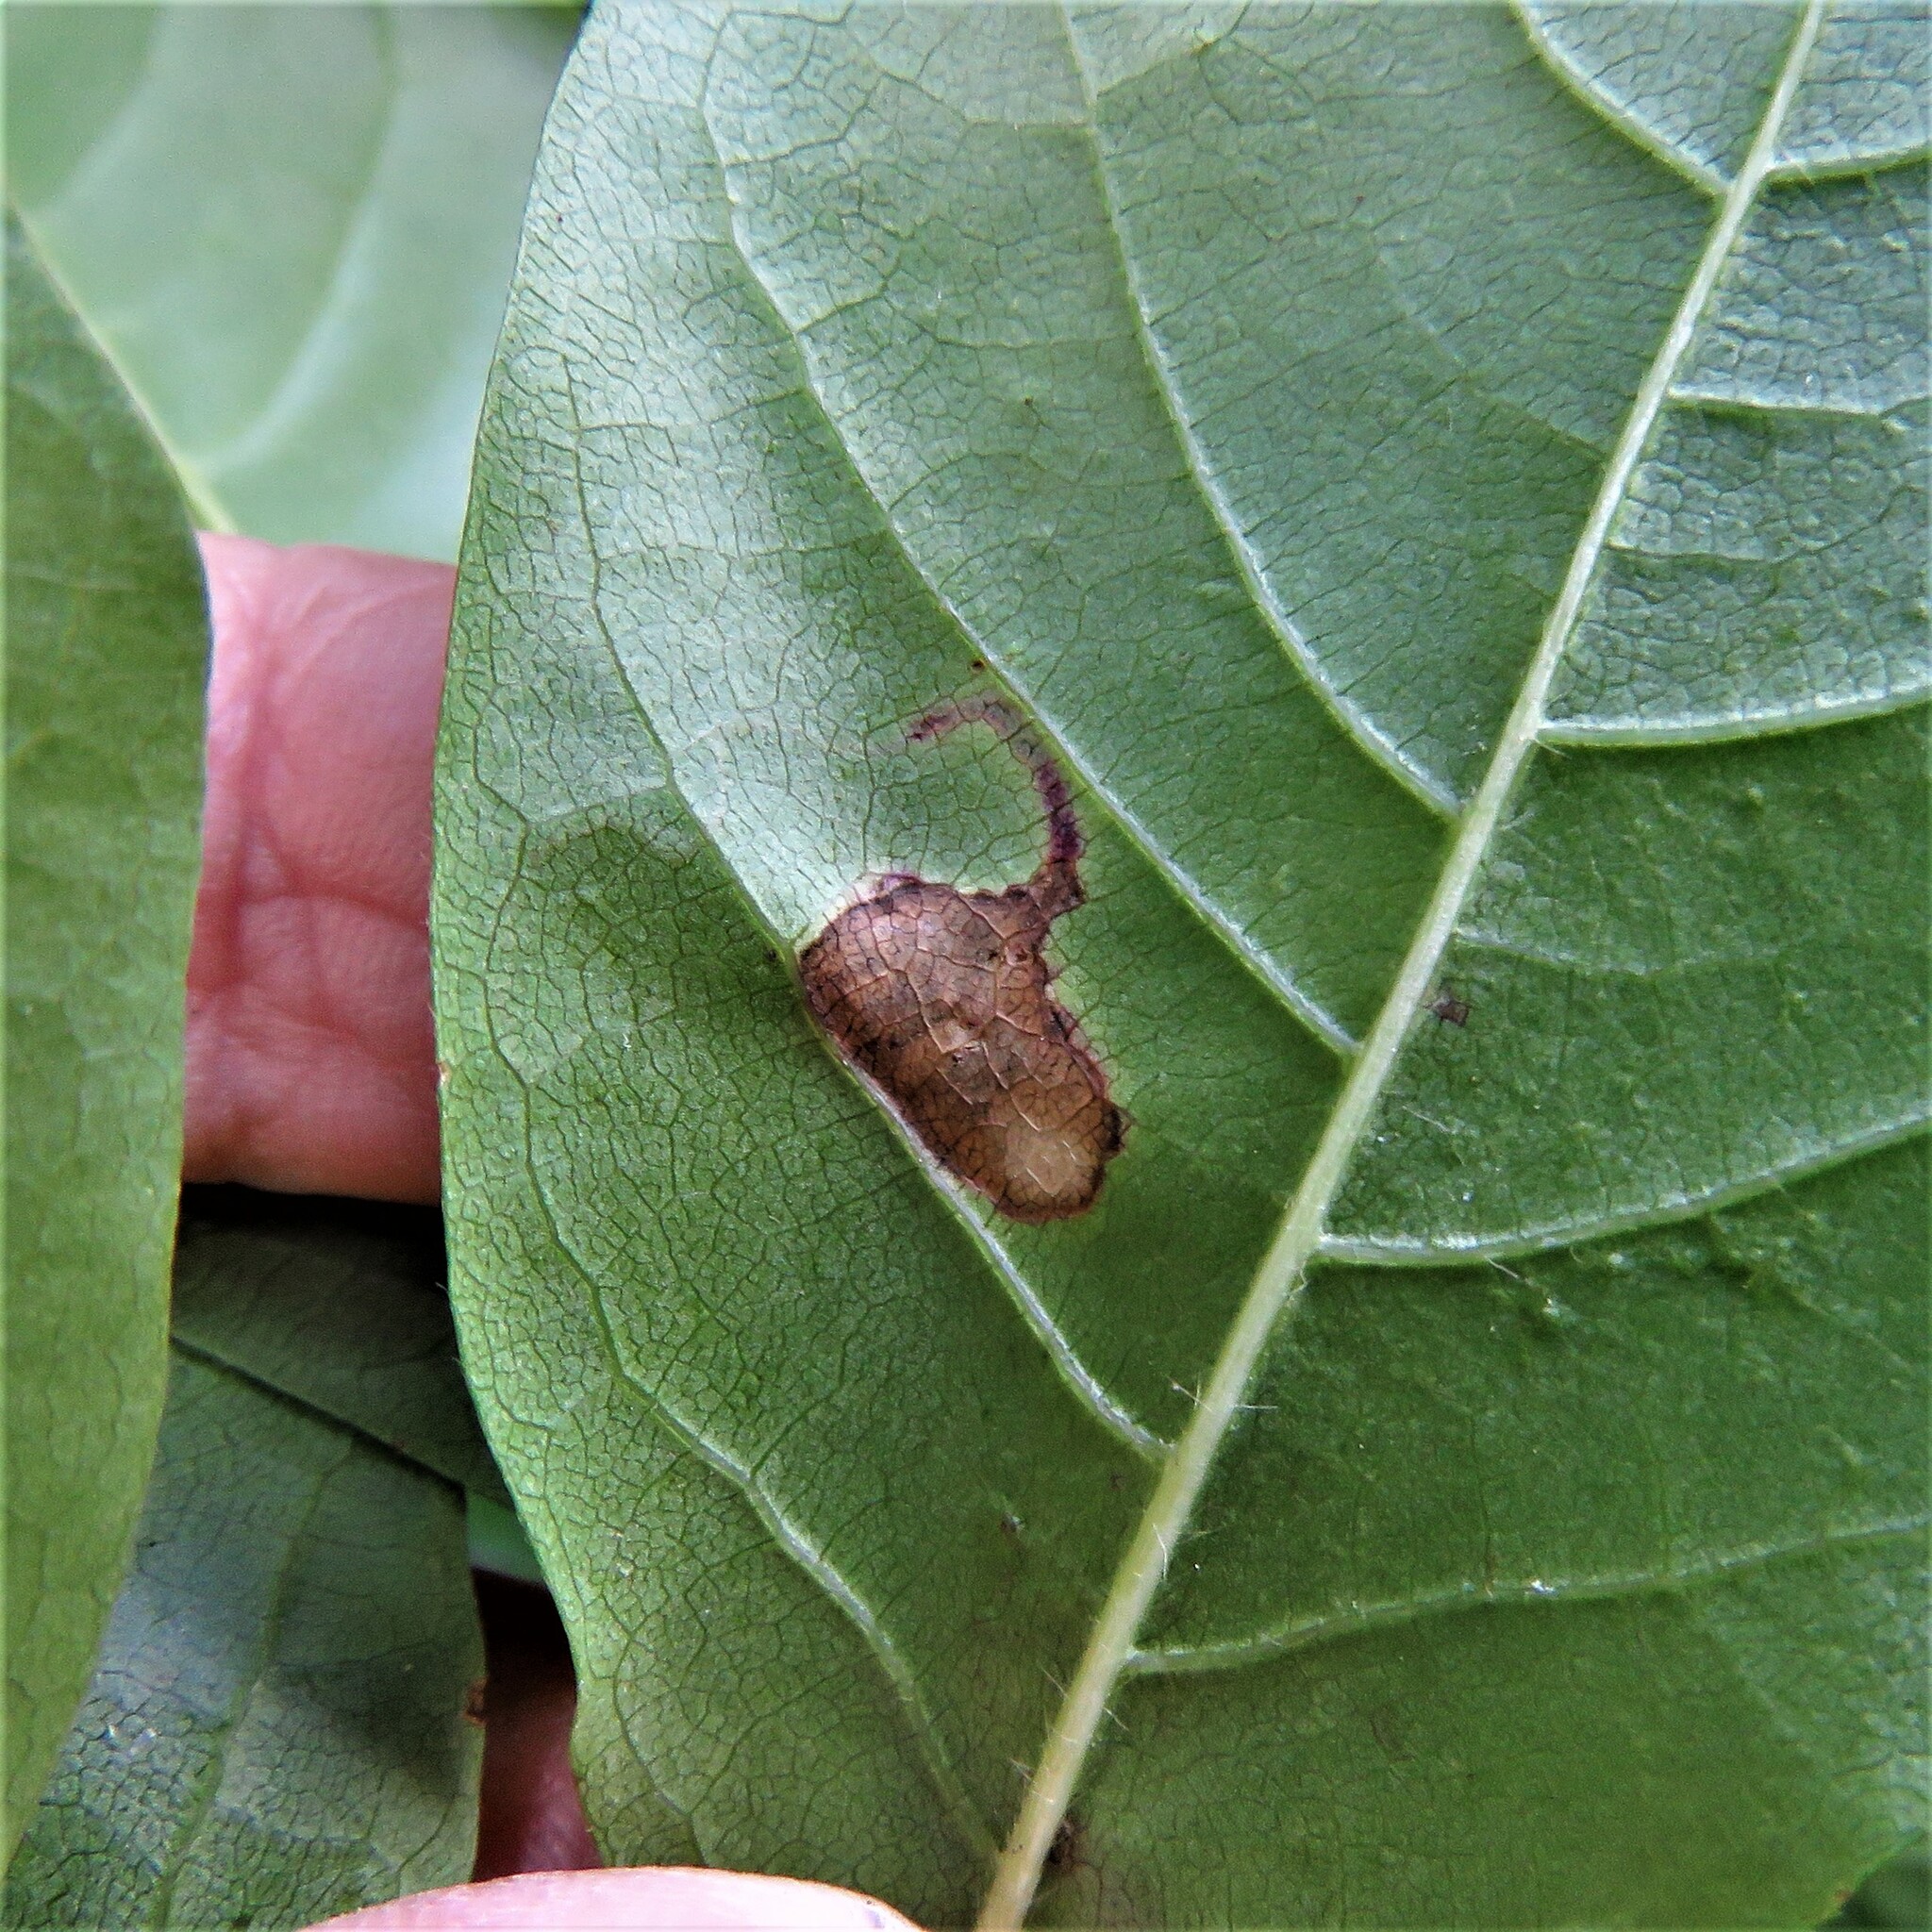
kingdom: Animalia
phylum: Arthropoda
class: Insecta
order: Lepidoptera
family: Nepticulidae
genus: Ectoedemia
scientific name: Ectoedemia nyssaefoliella
